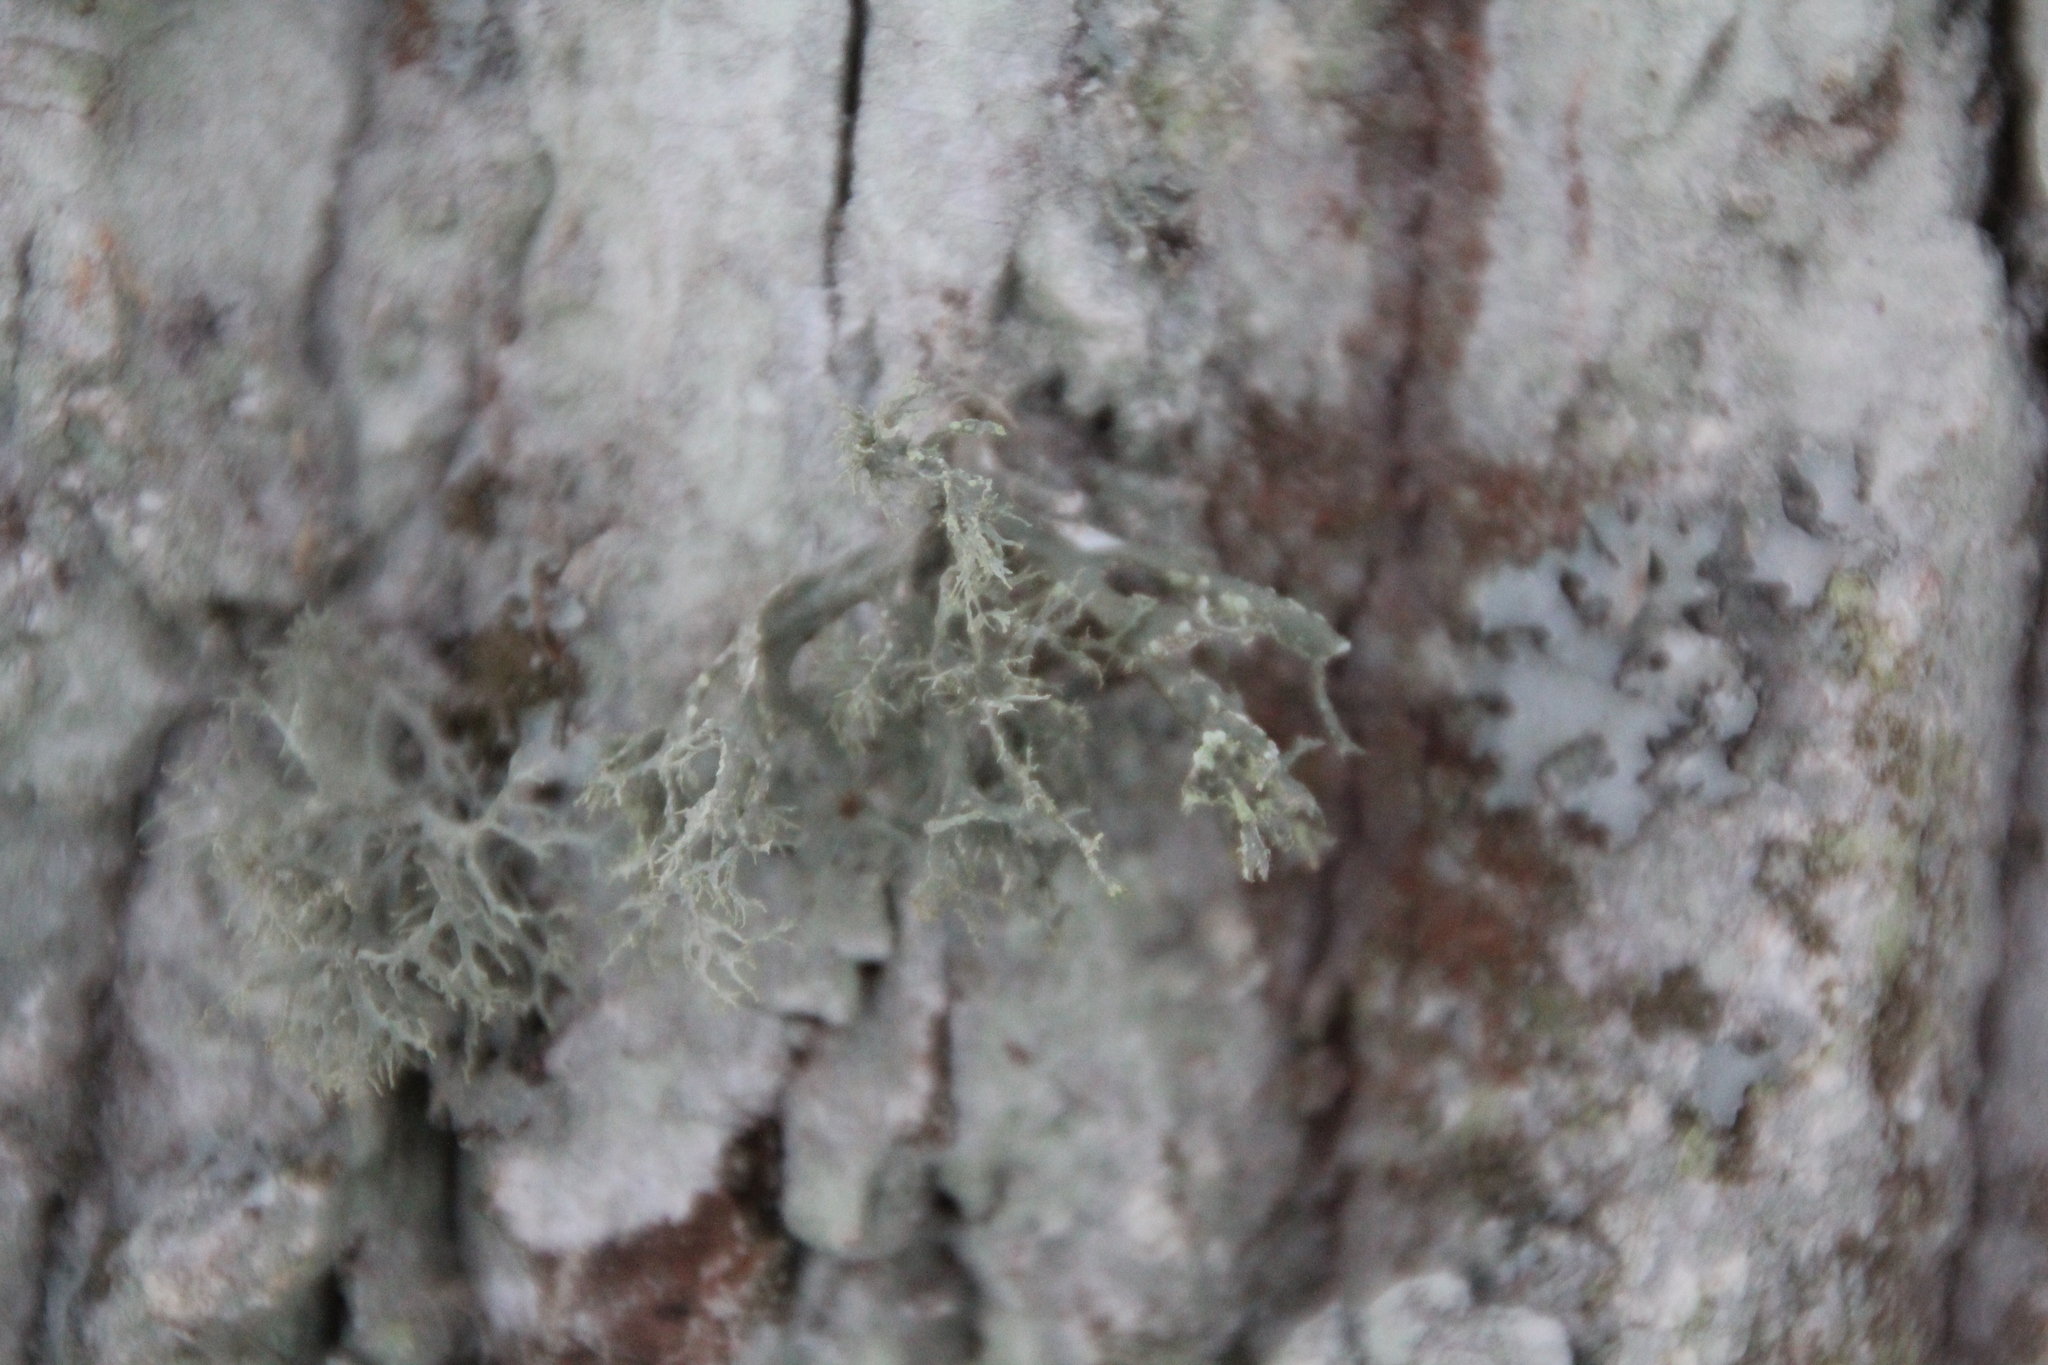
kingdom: Fungi
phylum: Ascomycota
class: Lecanoromycetes
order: Lecanorales
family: Ramalinaceae
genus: Ramalina
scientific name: Ramalina farinacea
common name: Farinose cartilage lichen
